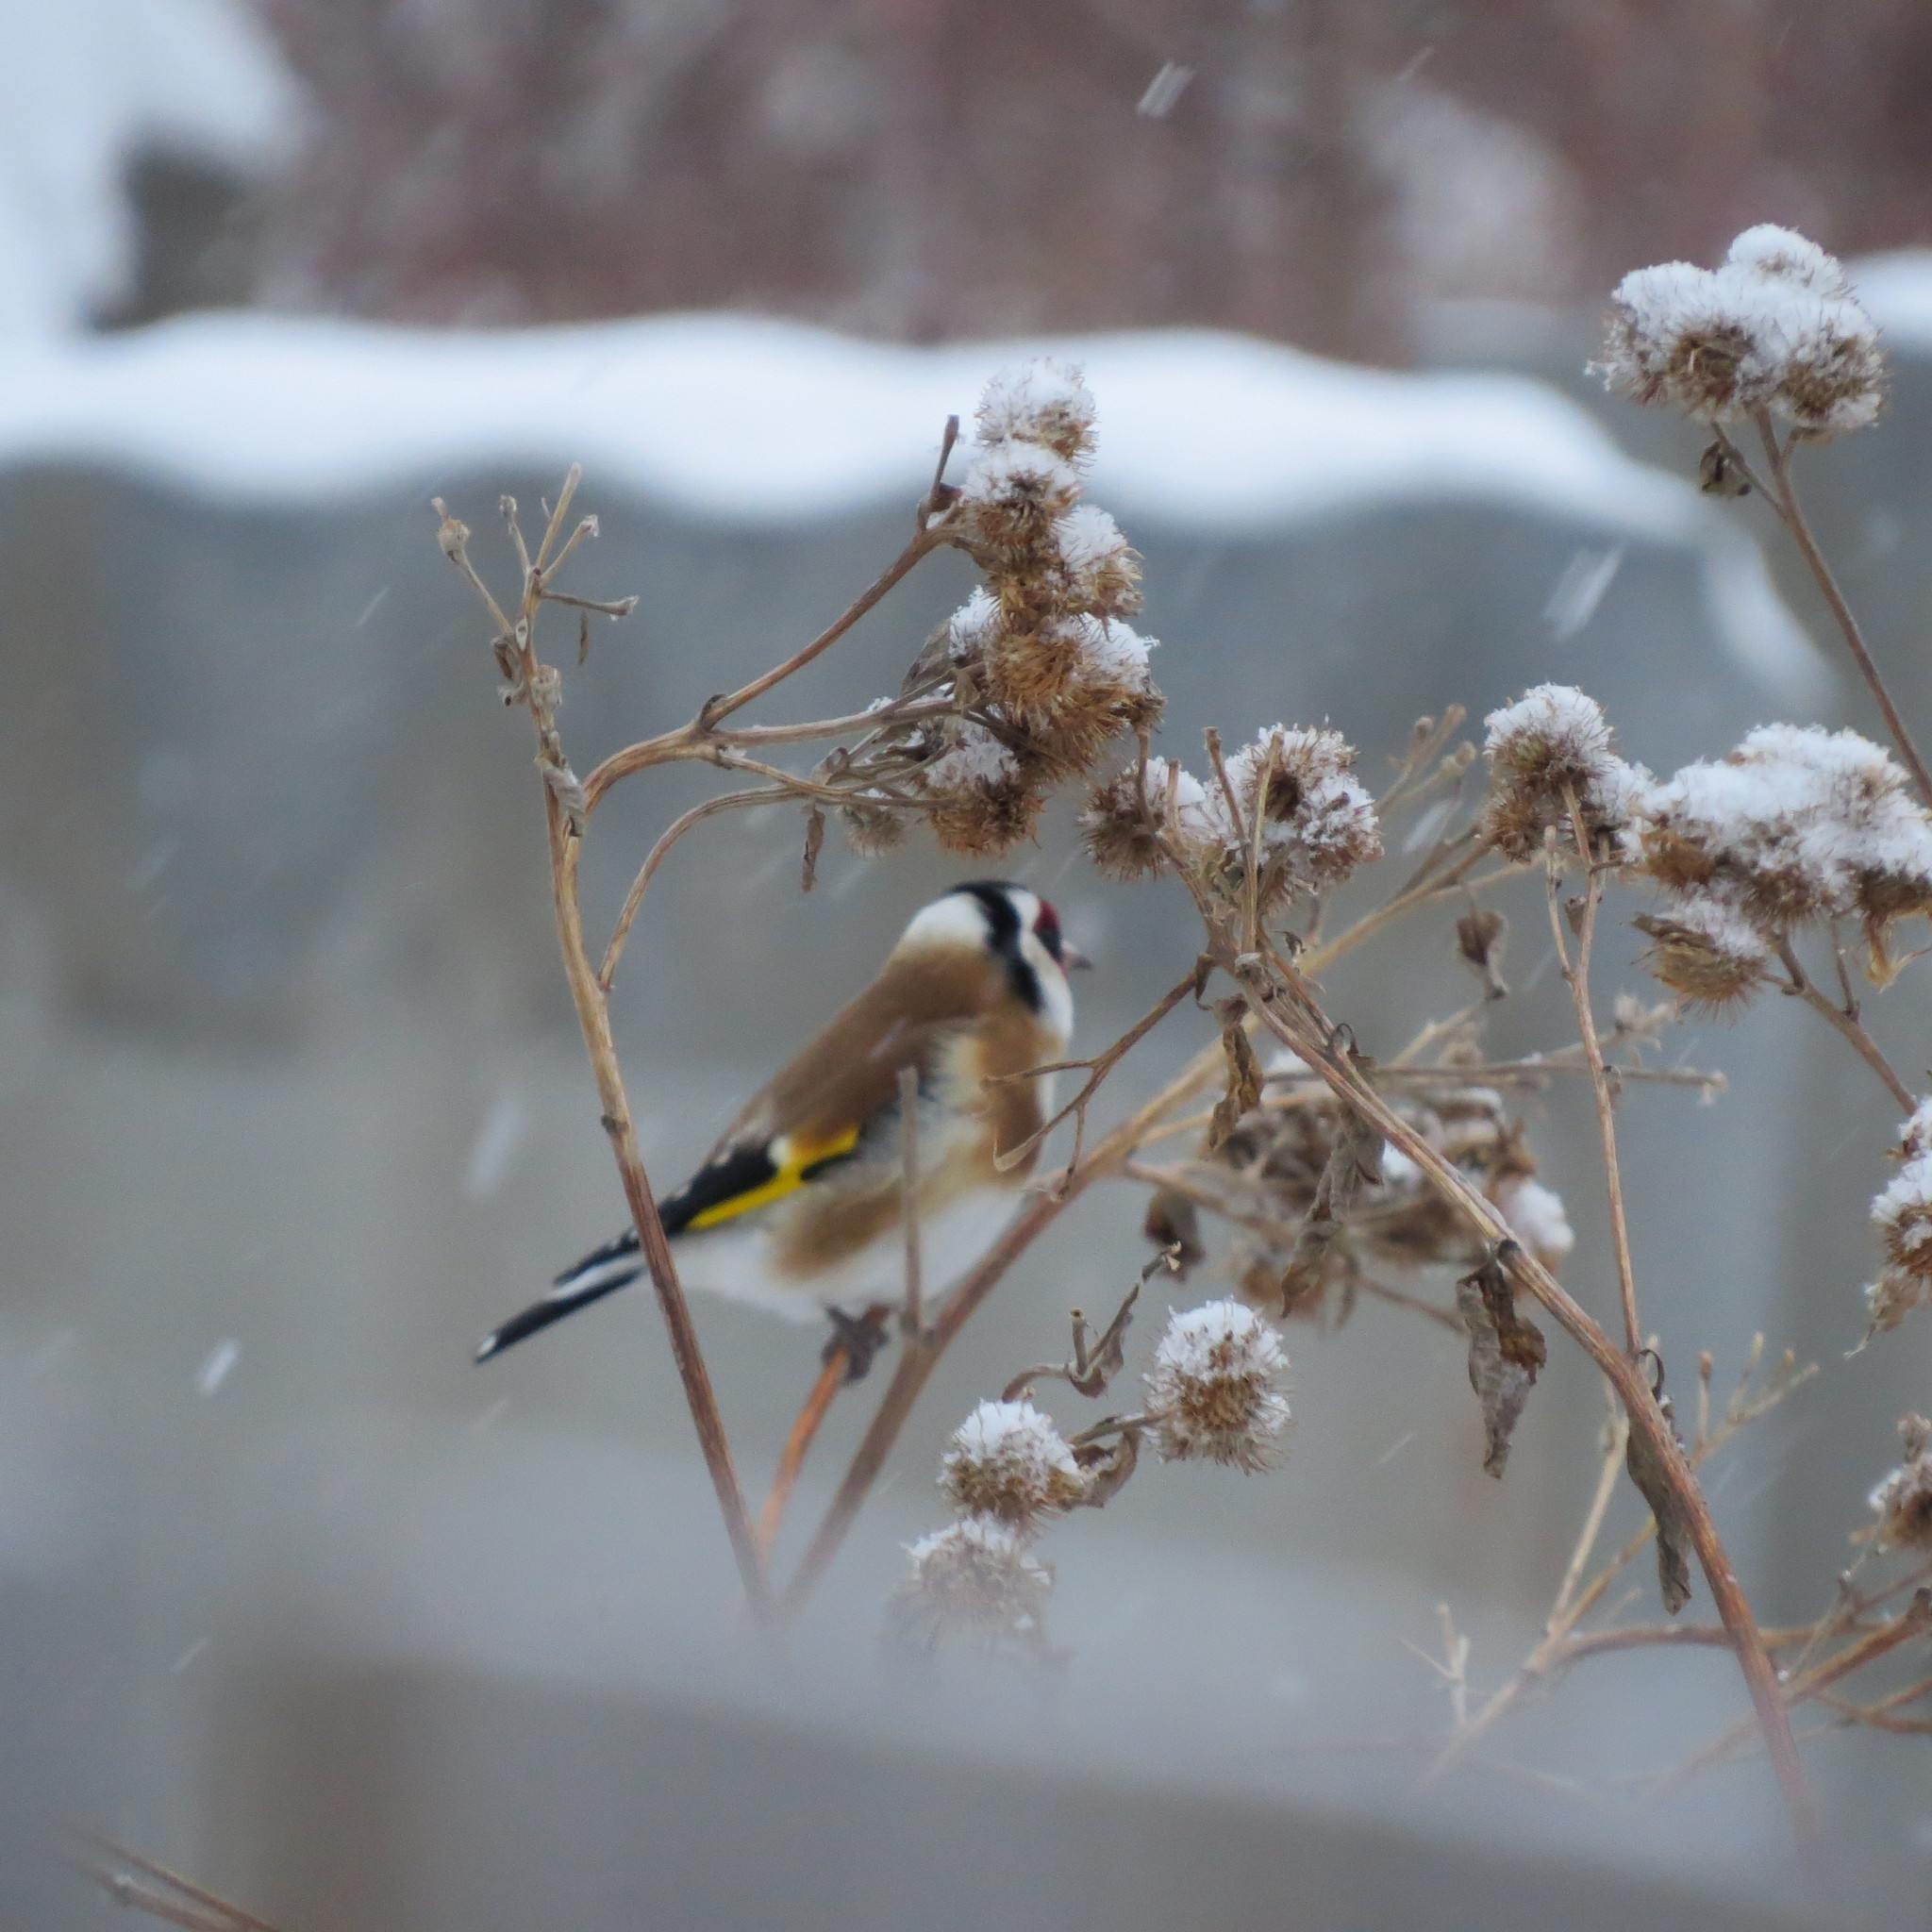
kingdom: Animalia
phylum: Chordata
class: Aves
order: Passeriformes
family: Fringillidae
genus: Carduelis
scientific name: Carduelis carduelis
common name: European goldfinch
